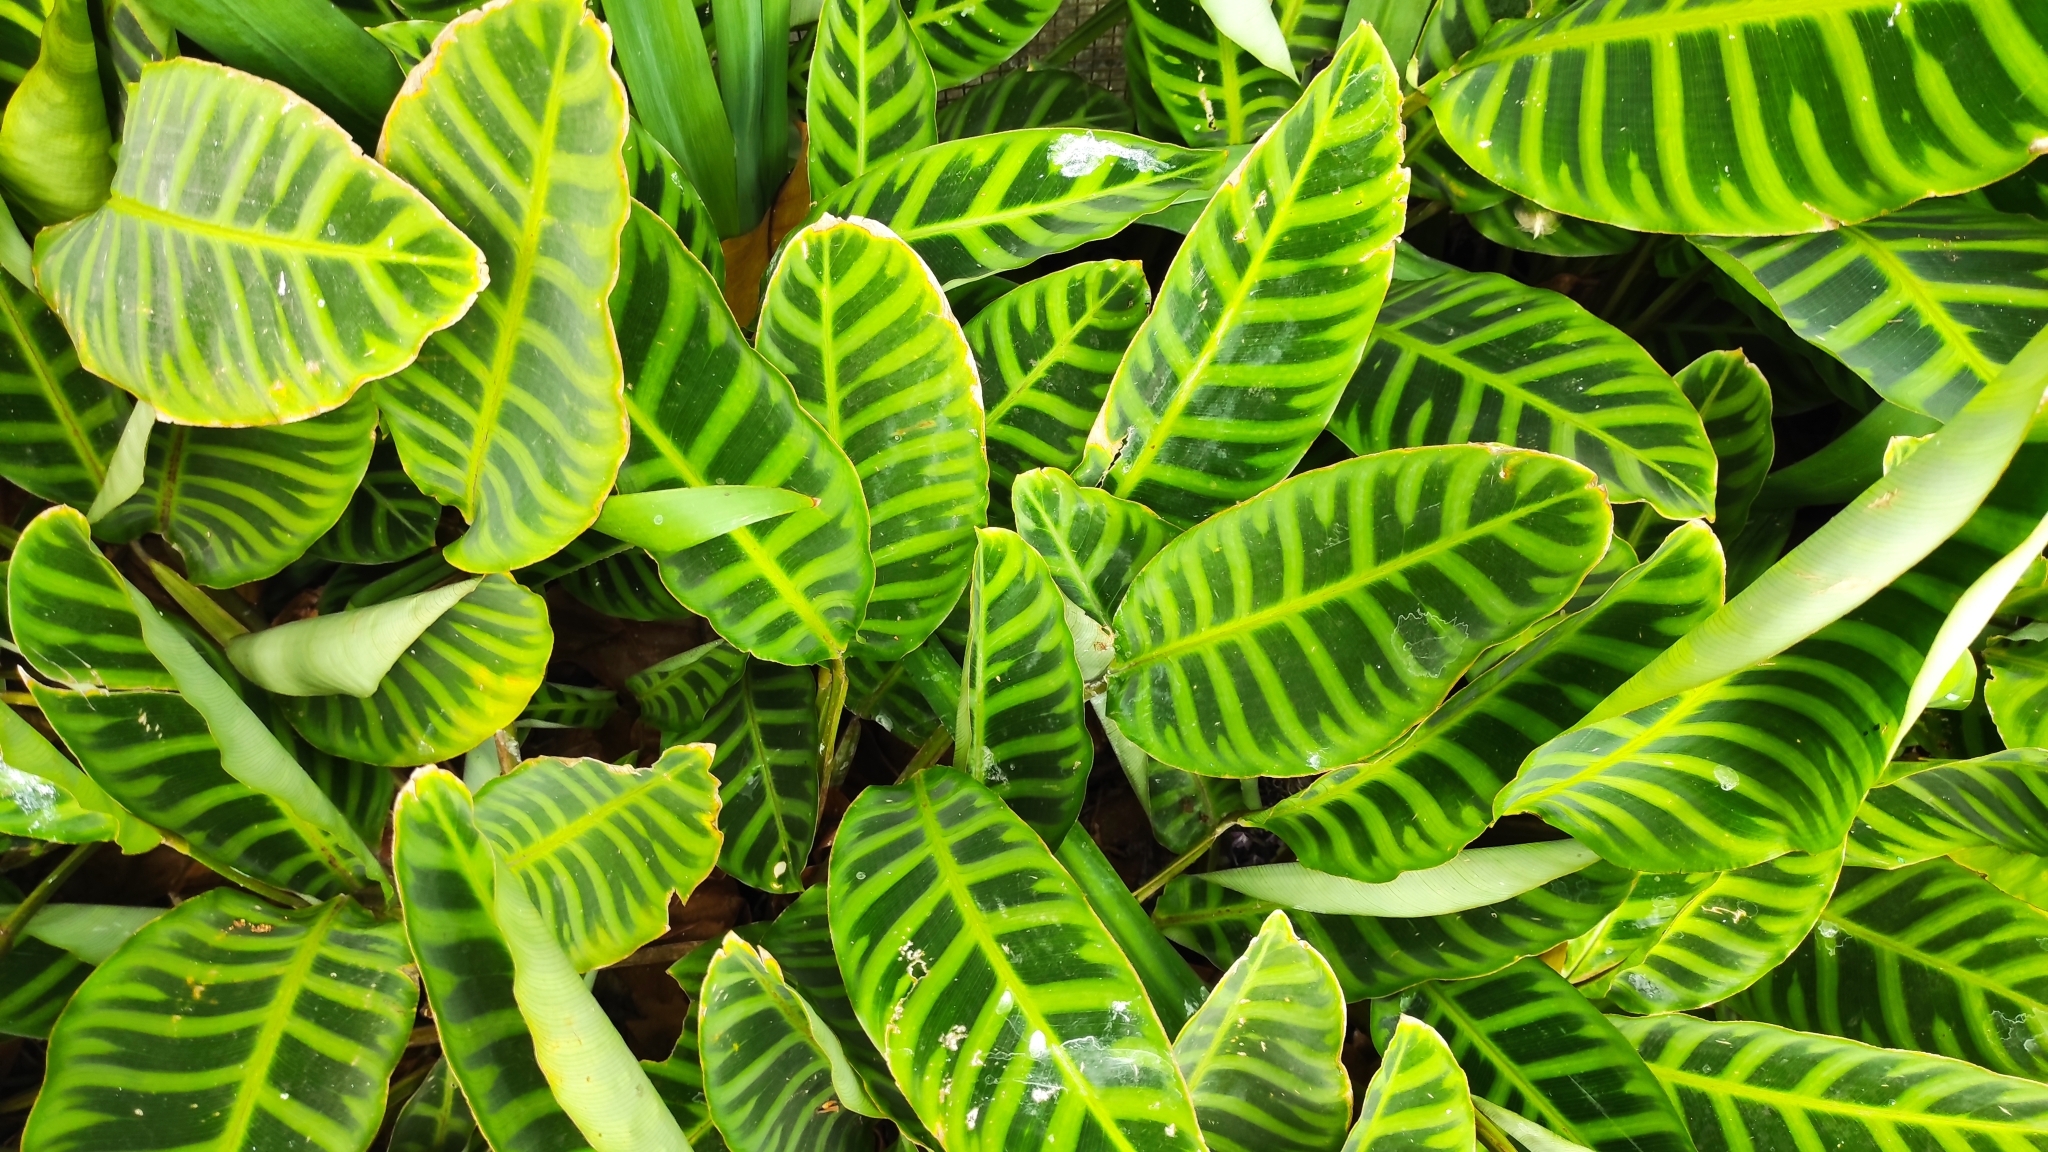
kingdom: Plantae
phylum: Tracheophyta
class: Liliopsida
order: Zingiberales
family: Marantaceae
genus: Goeppertia
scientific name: Goeppertia zebrina
